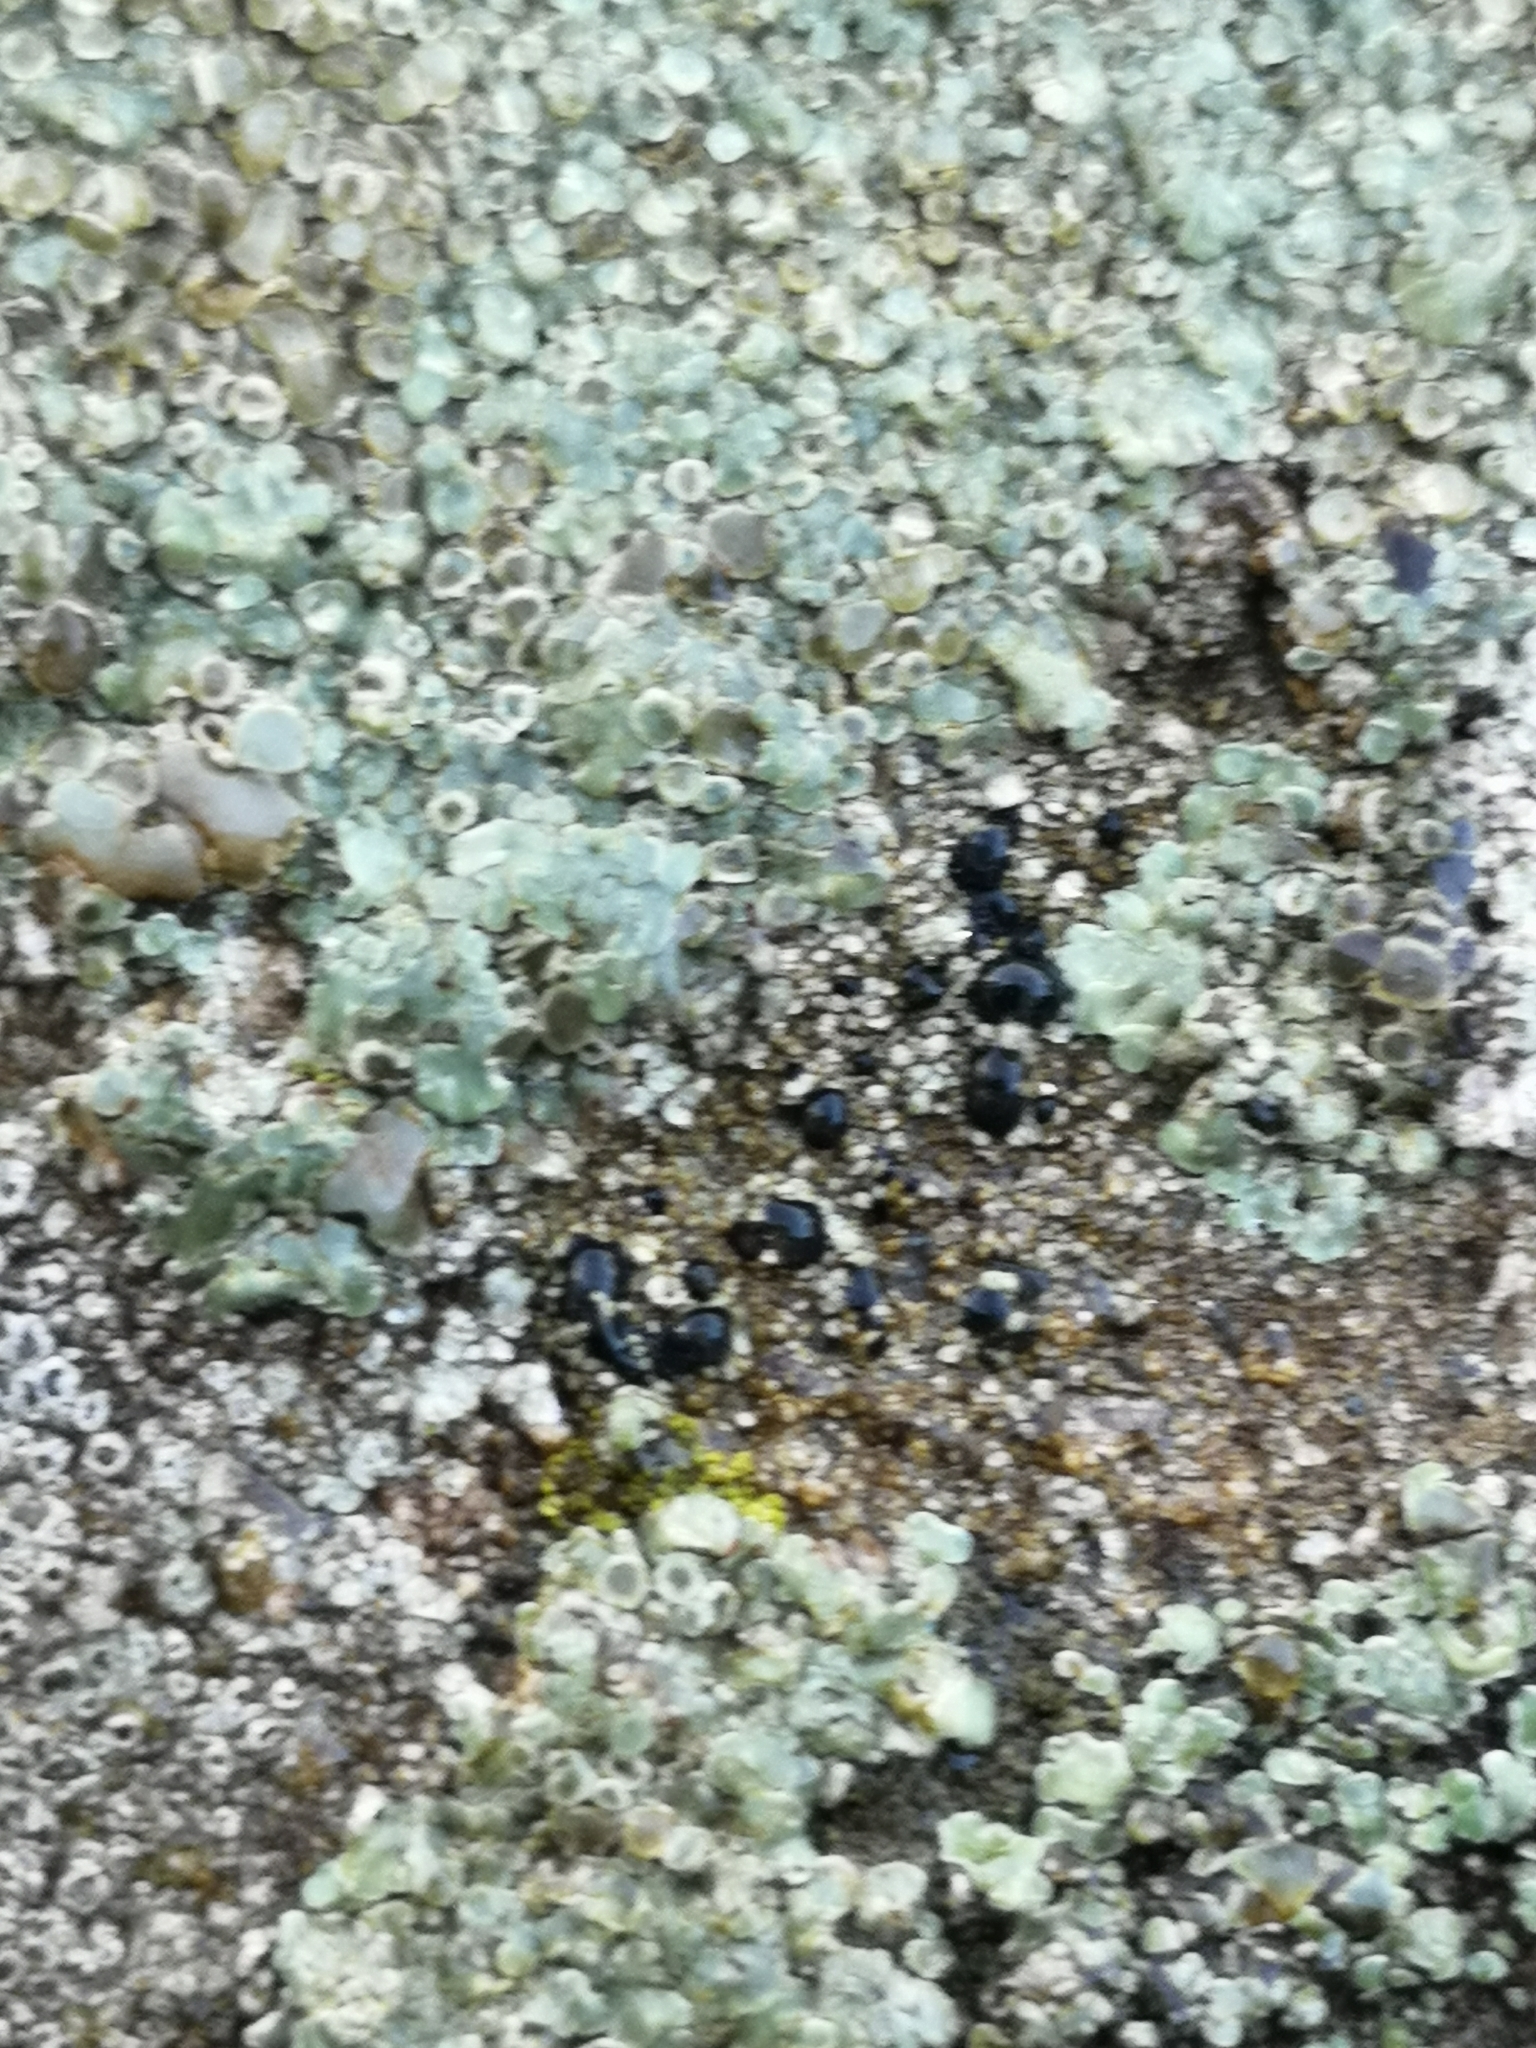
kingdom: Fungi
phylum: Ascomycota
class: Lecanoromycetes
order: Lecanorales
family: Lecanoraceae
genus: Protoparmeliopsis
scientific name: Protoparmeliopsis muralis
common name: Stonewall rim lichen
